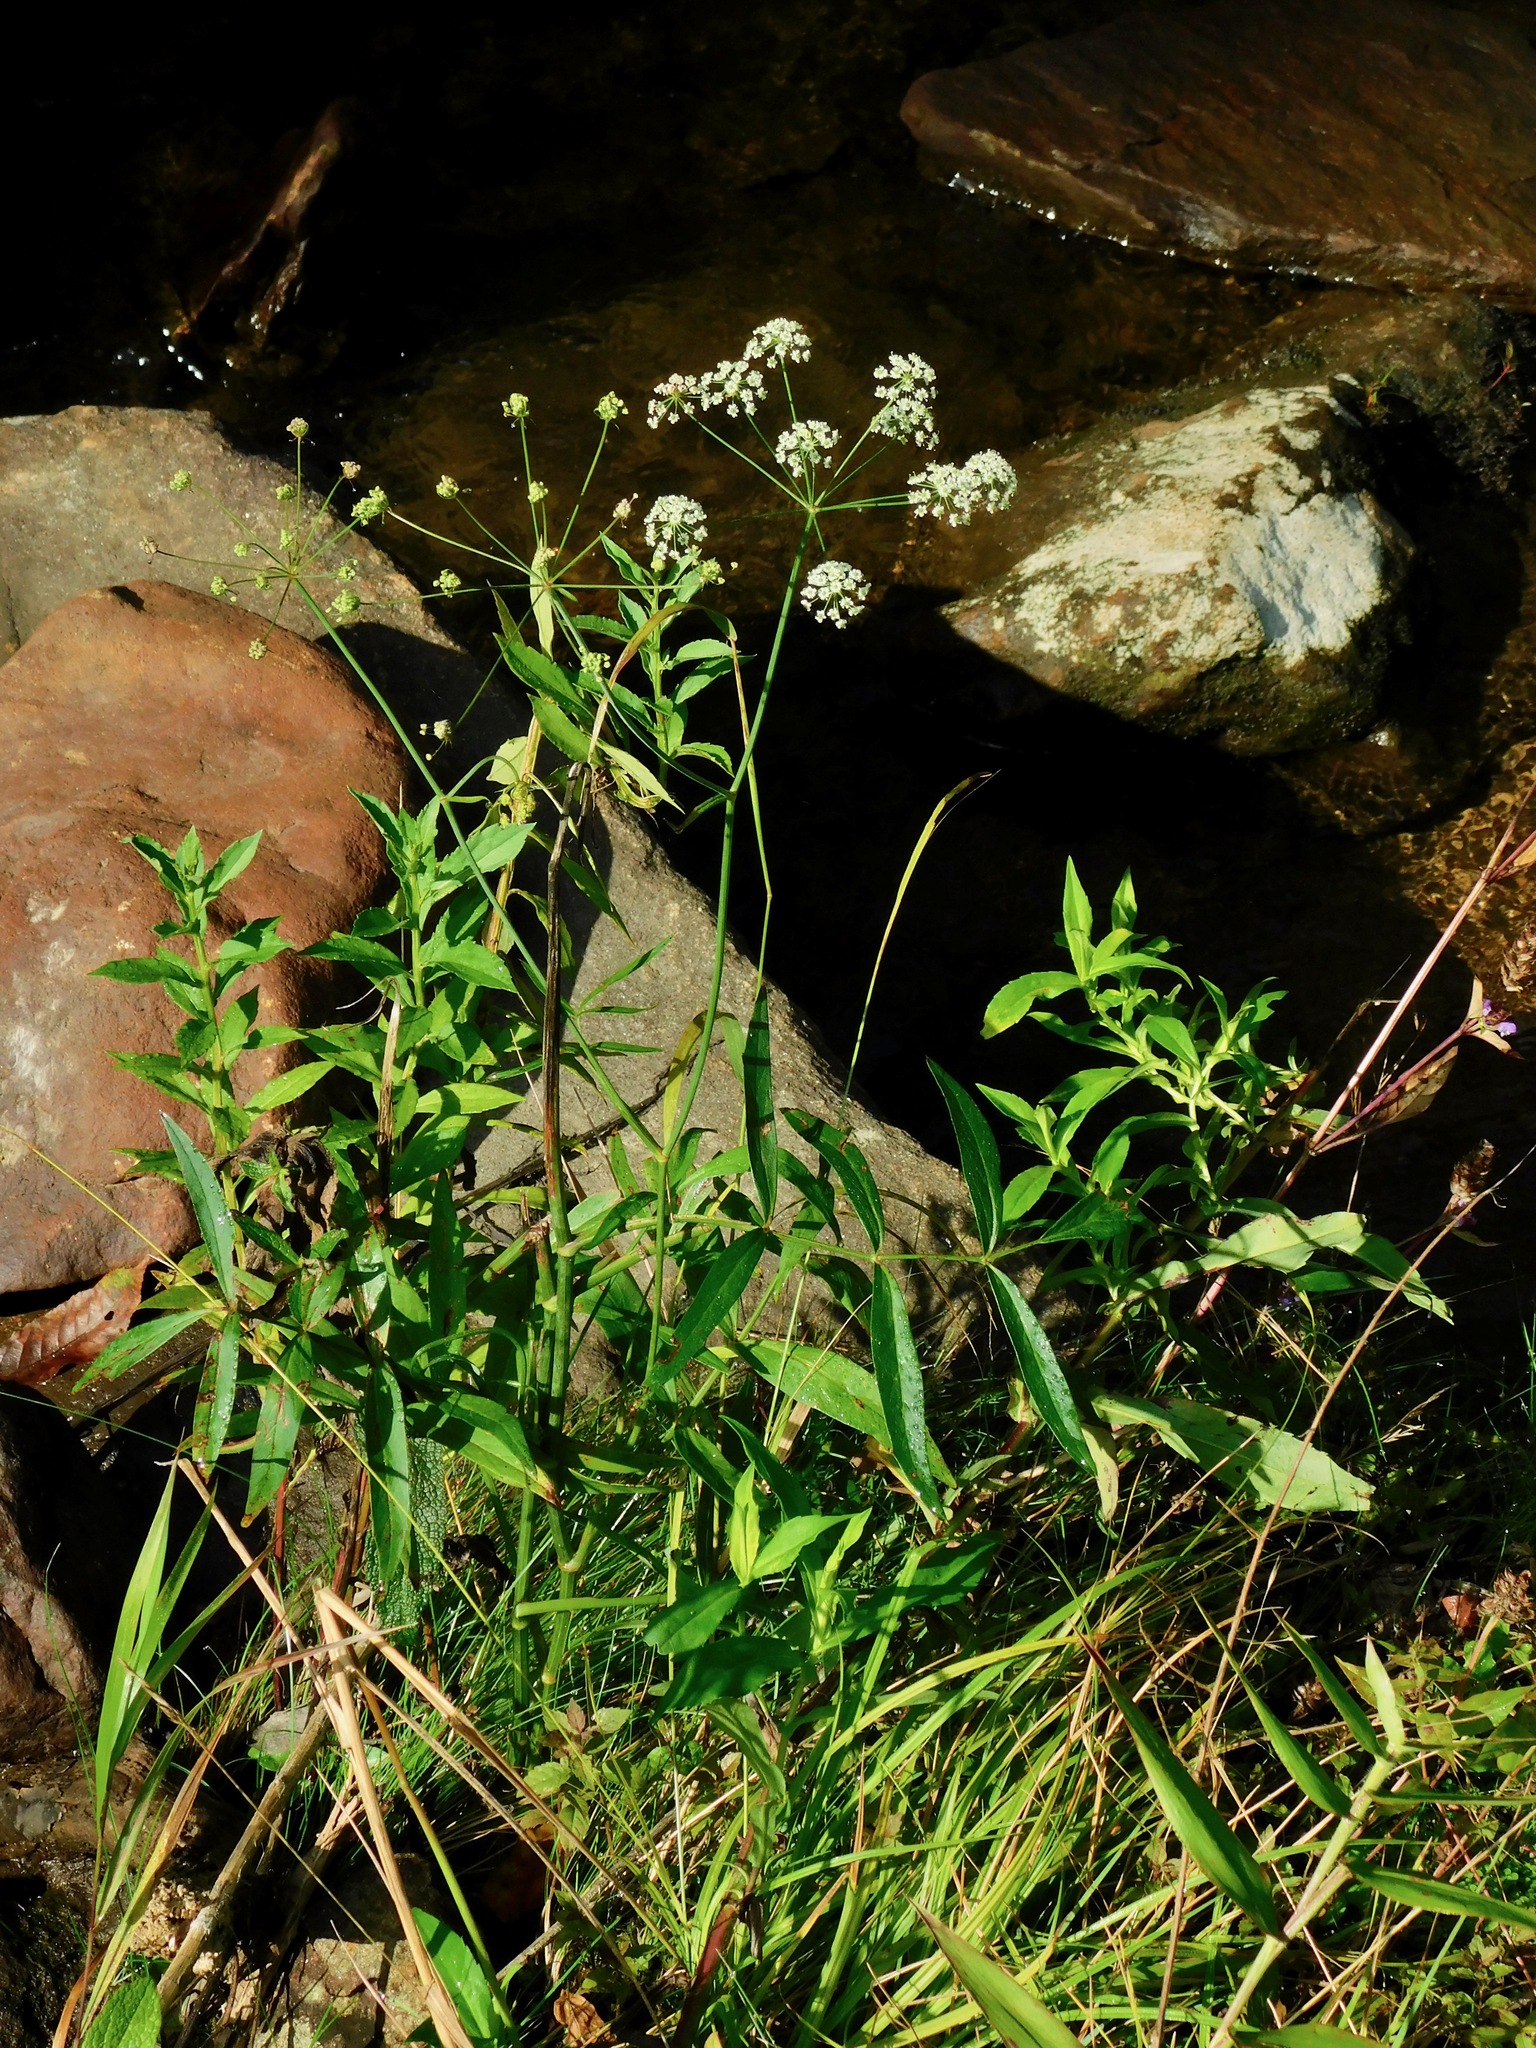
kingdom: Plantae
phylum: Tracheophyta
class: Magnoliopsida
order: Apiales
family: Apiaceae
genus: Oxypolis
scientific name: Oxypolis rigidior
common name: Cowbane
